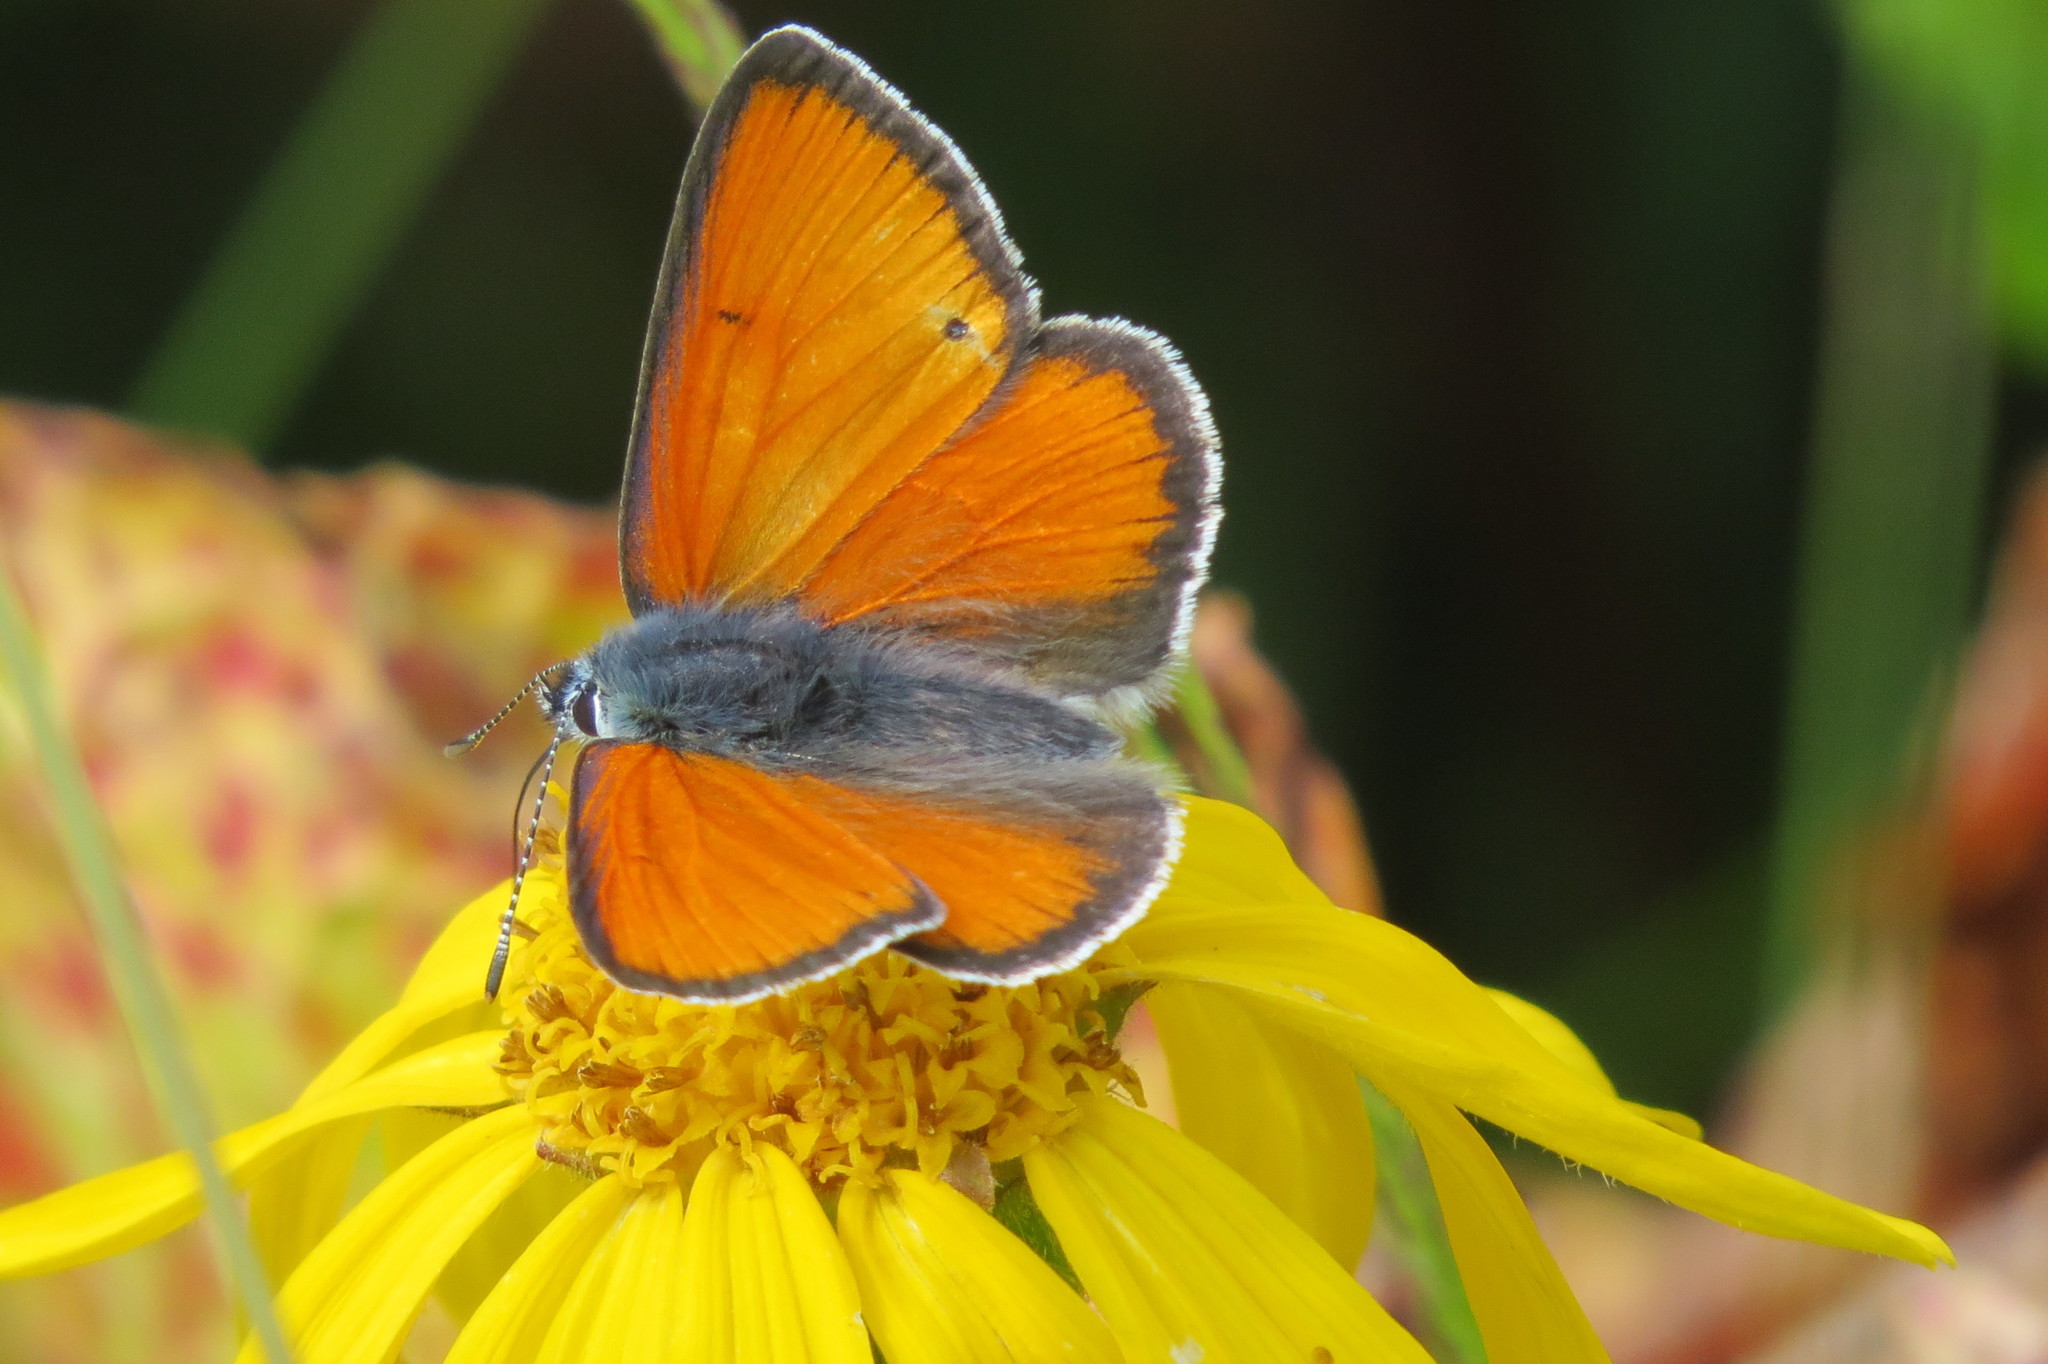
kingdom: Animalia
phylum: Arthropoda
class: Insecta
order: Lepidoptera
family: Lycaenidae
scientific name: Lycaenidae
